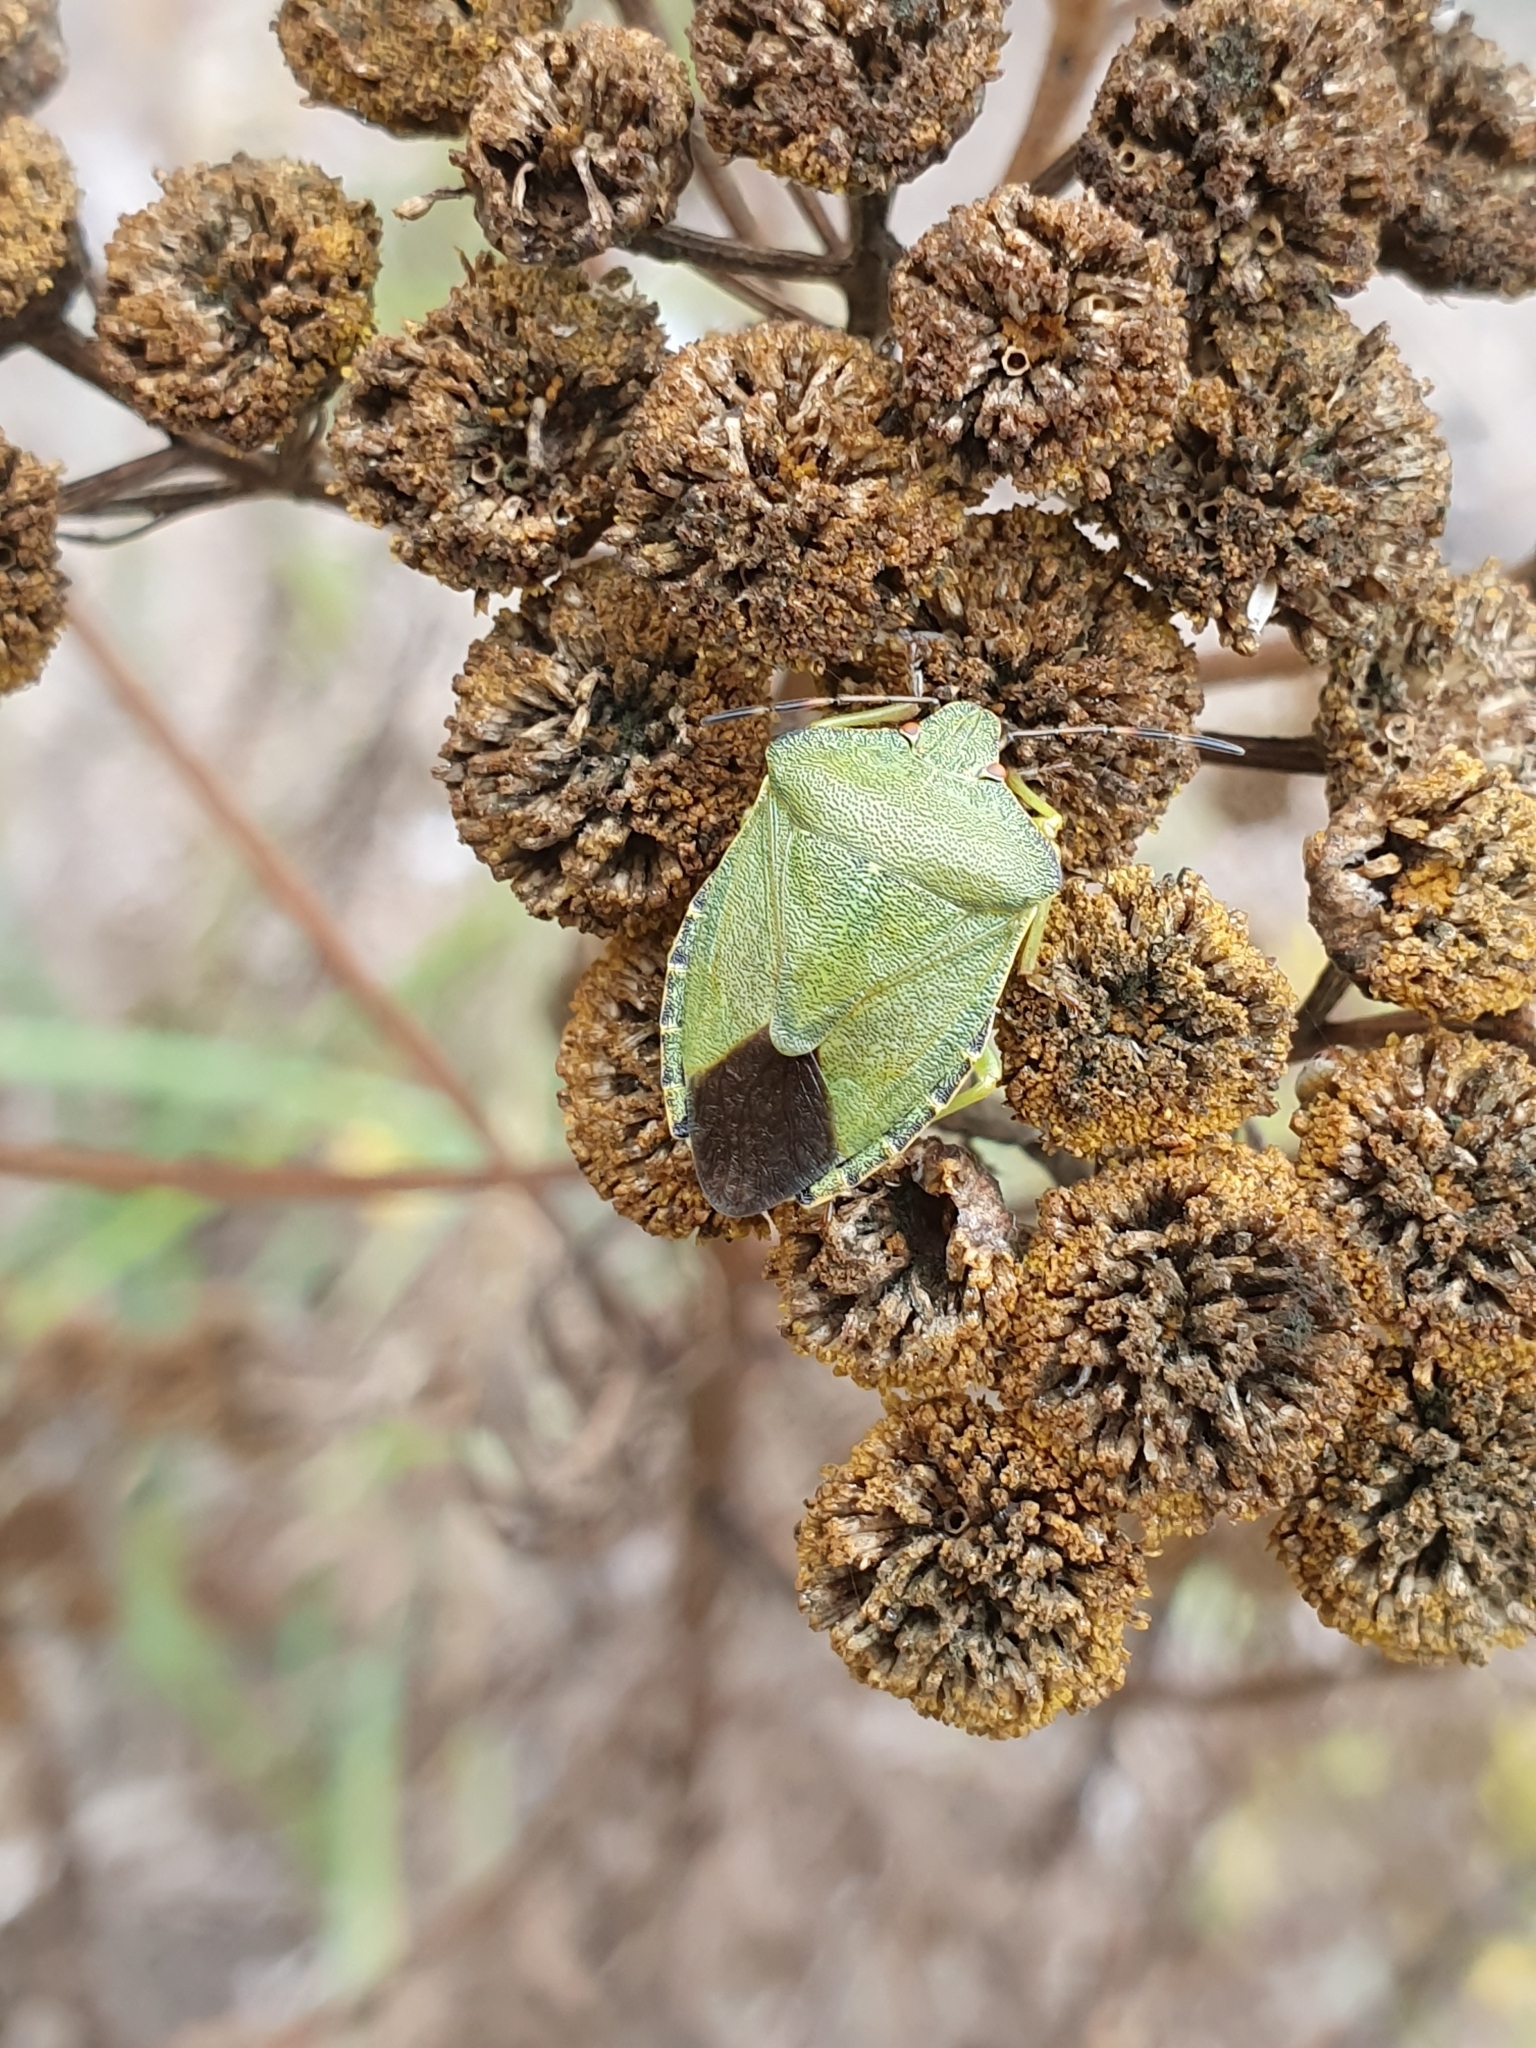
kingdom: Animalia
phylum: Arthropoda
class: Insecta
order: Hemiptera
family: Pentatomidae
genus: Palomena
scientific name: Palomena prasina
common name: Green shieldbug
